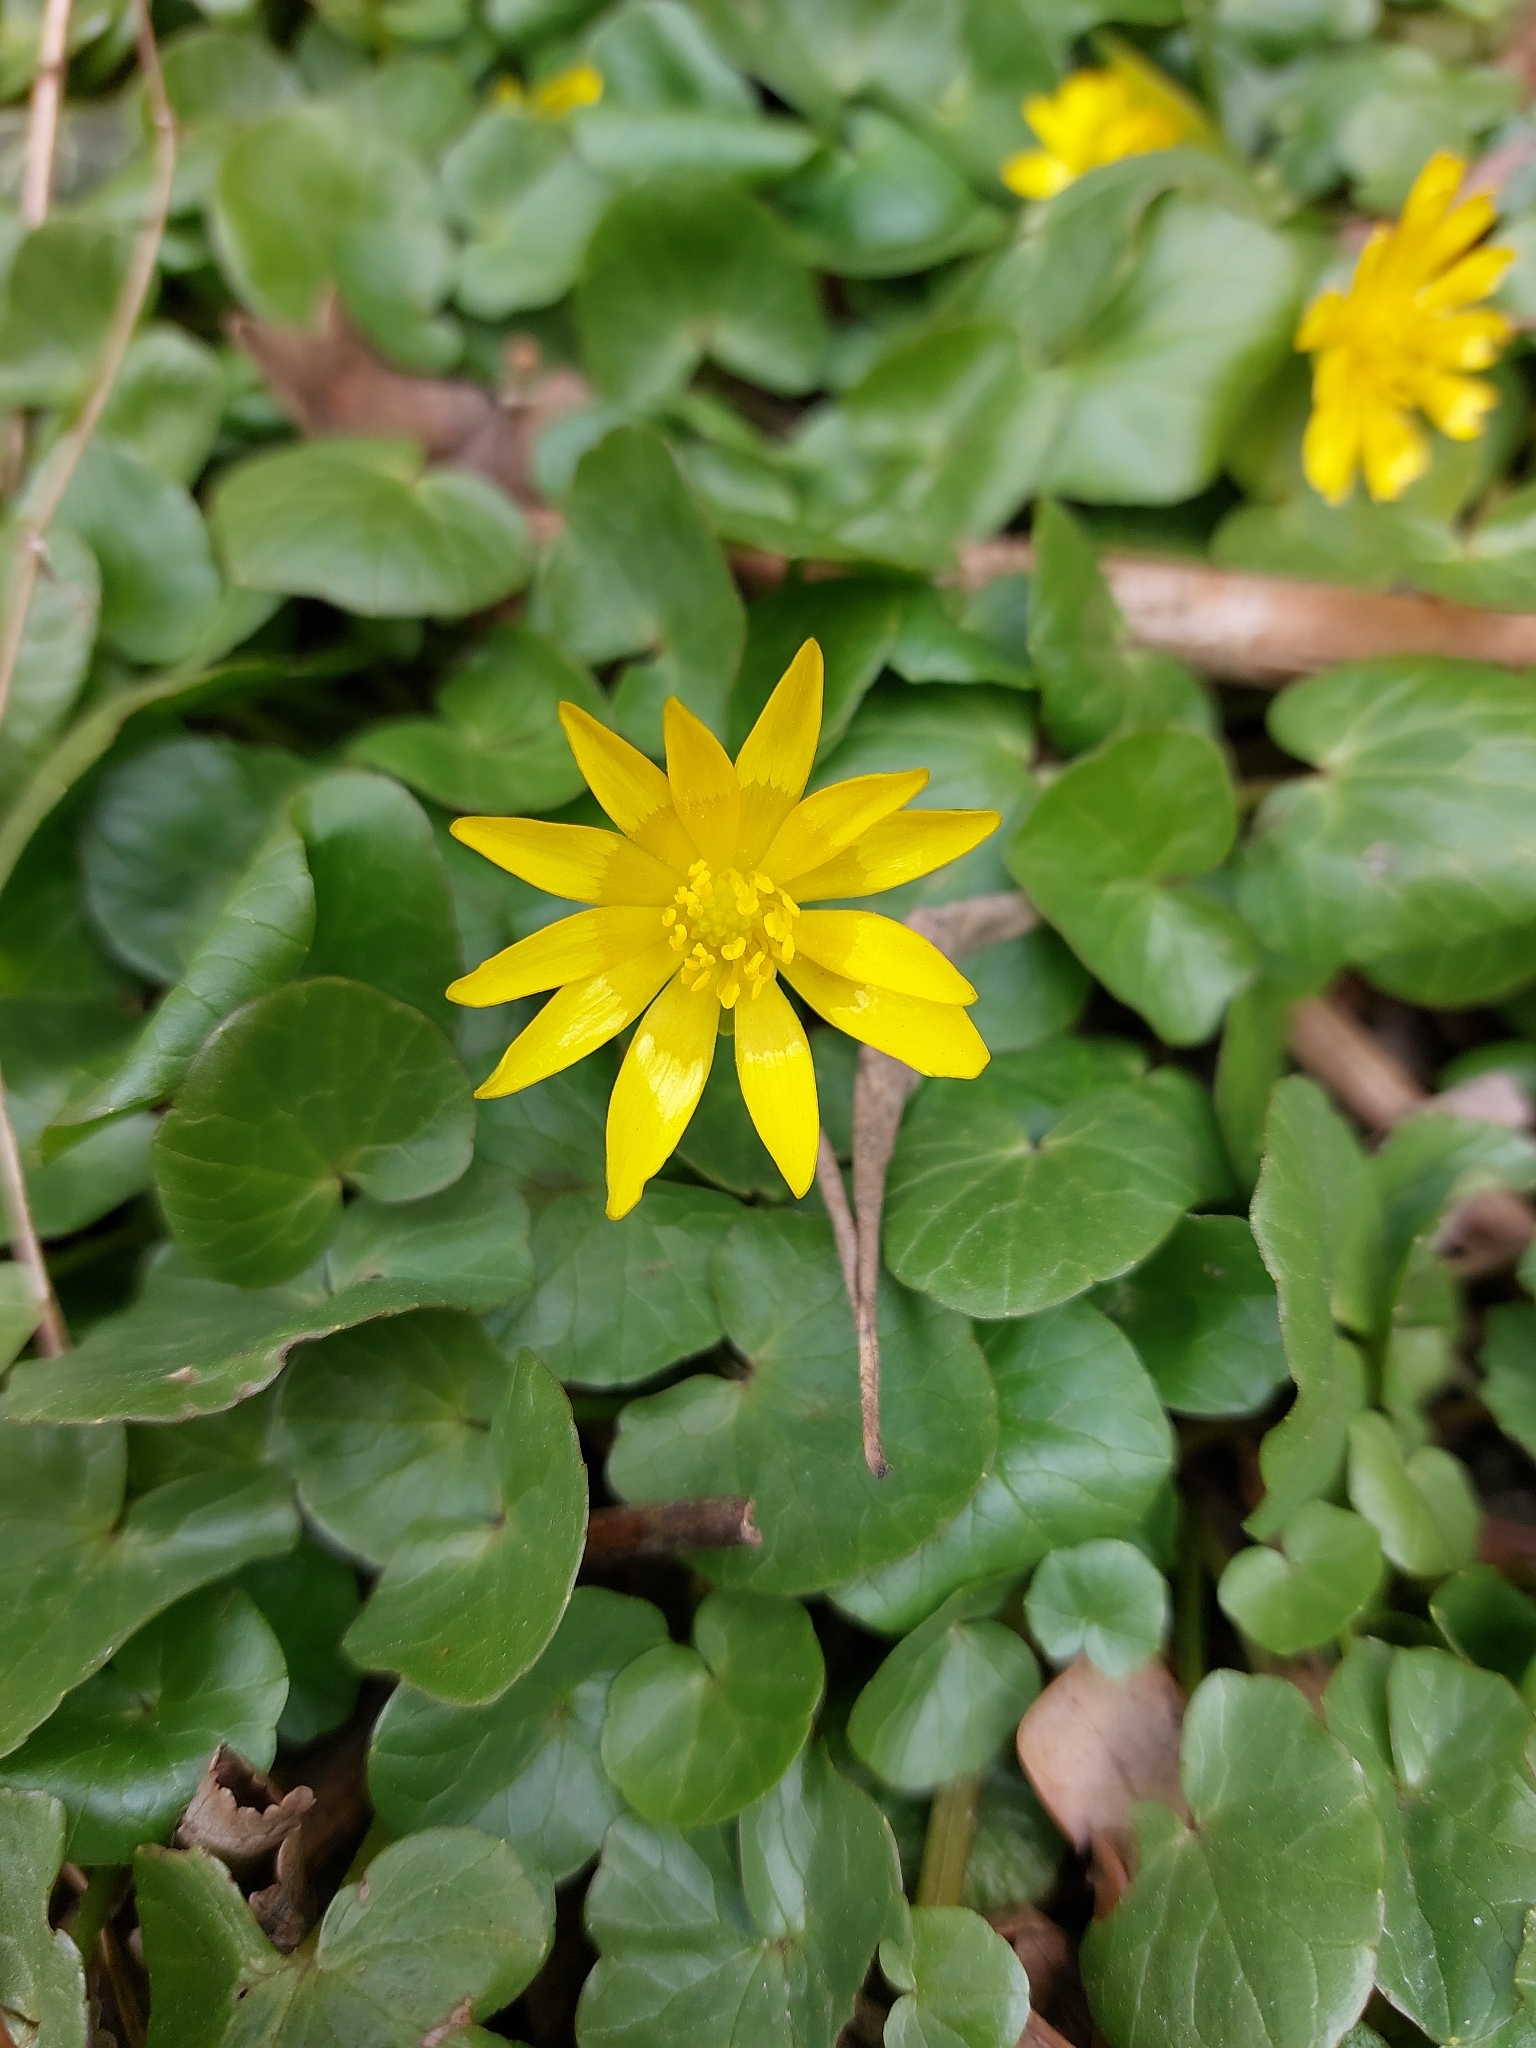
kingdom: Plantae
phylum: Tracheophyta
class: Magnoliopsida
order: Ranunculales
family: Ranunculaceae
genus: Ficaria
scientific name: Ficaria verna
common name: Lesser celandine
